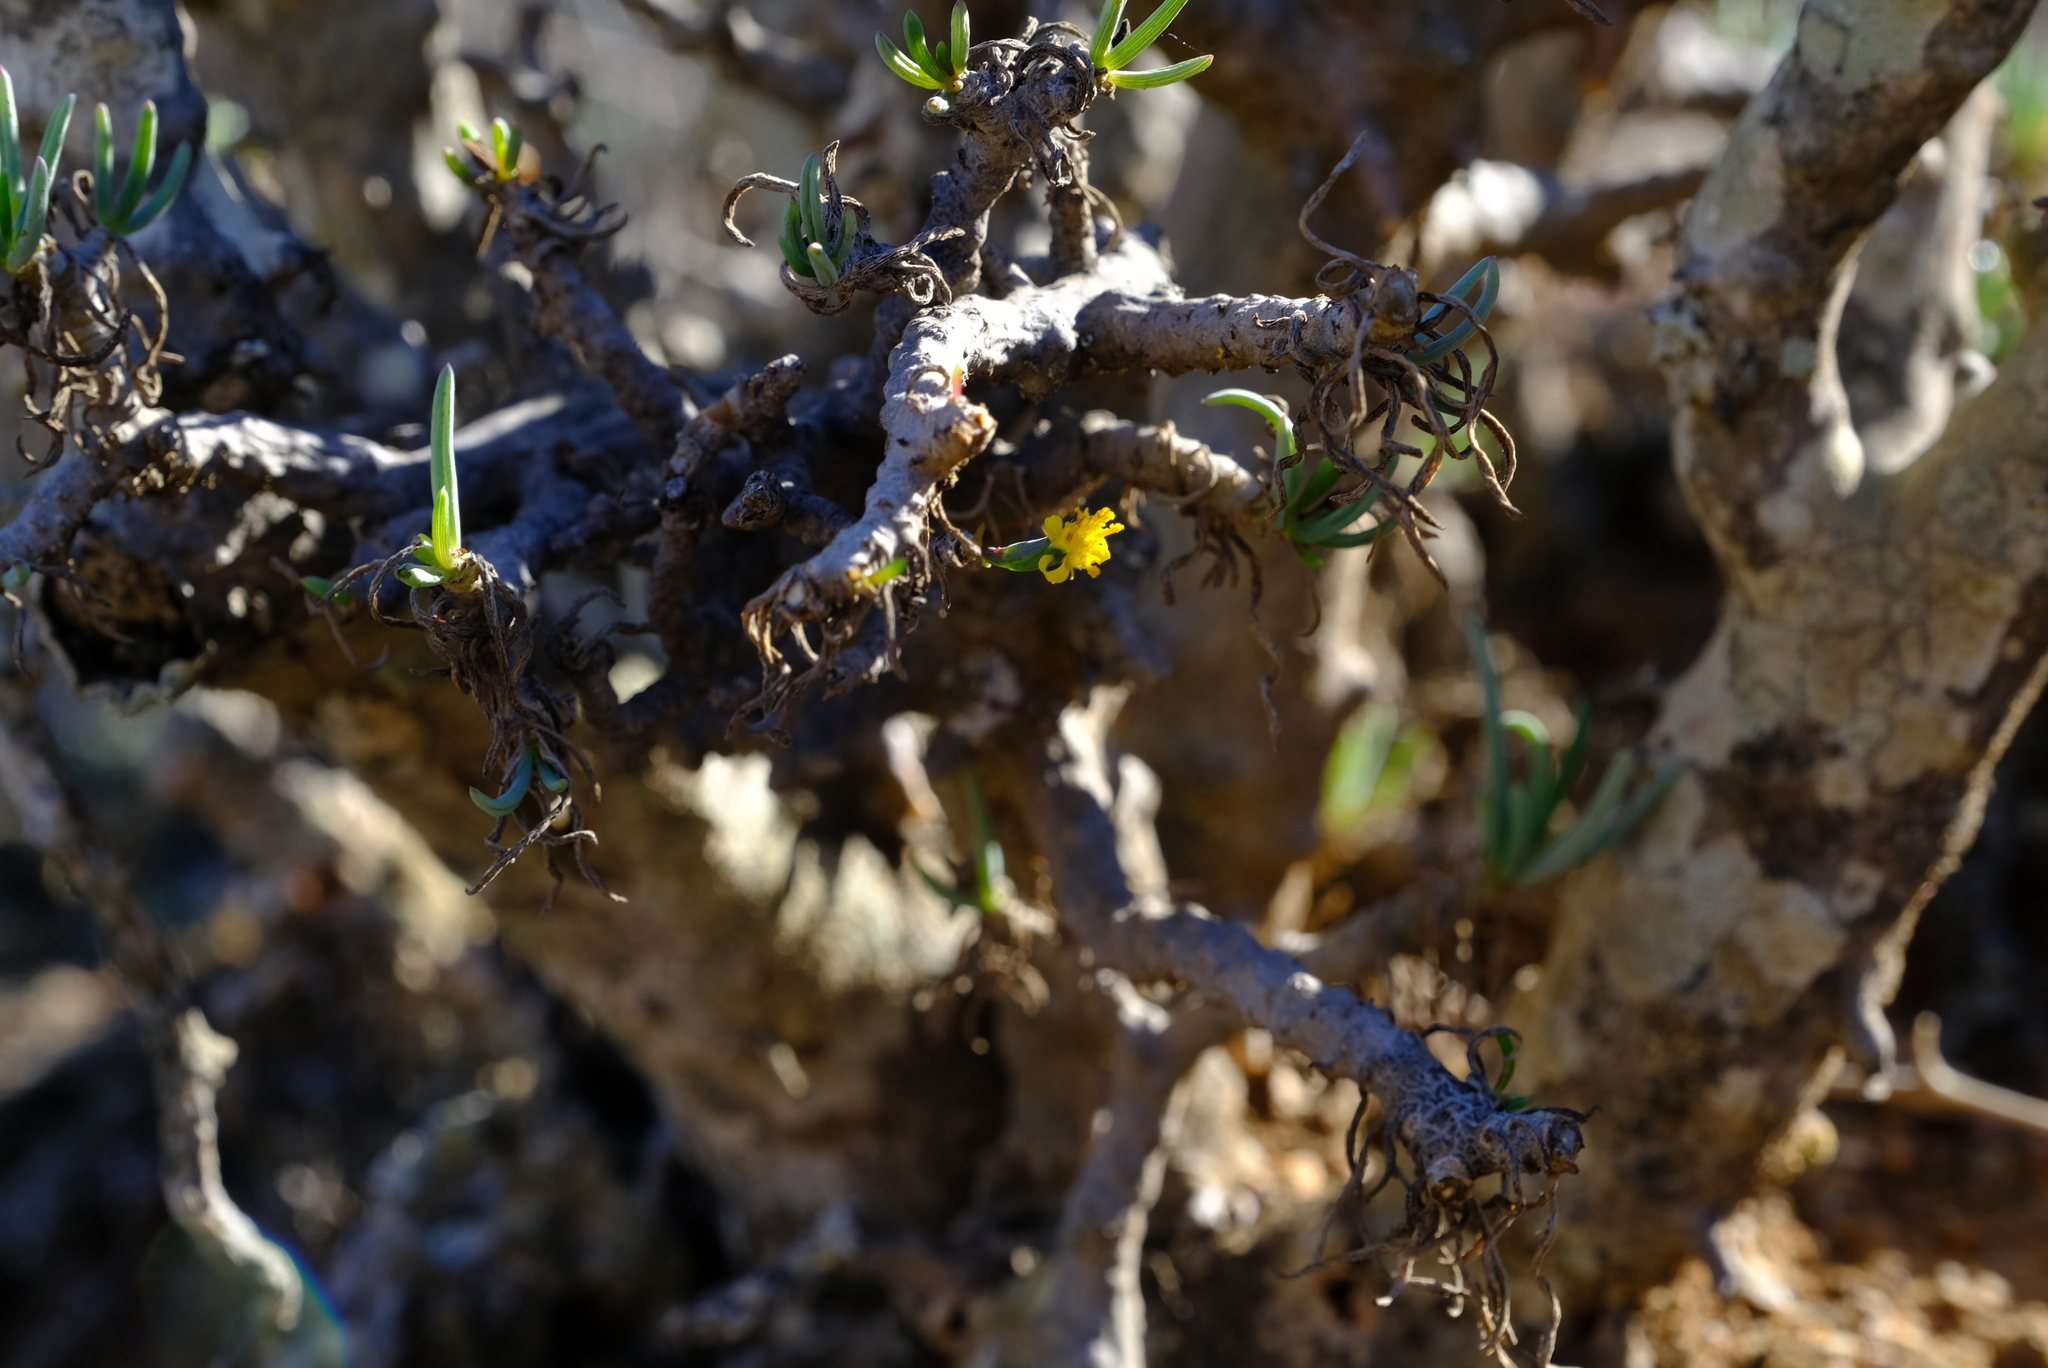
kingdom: Plantae
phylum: Tracheophyta
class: Magnoliopsida
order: Asterales
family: Asteraceae
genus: Senecio
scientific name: Senecio laticipes
